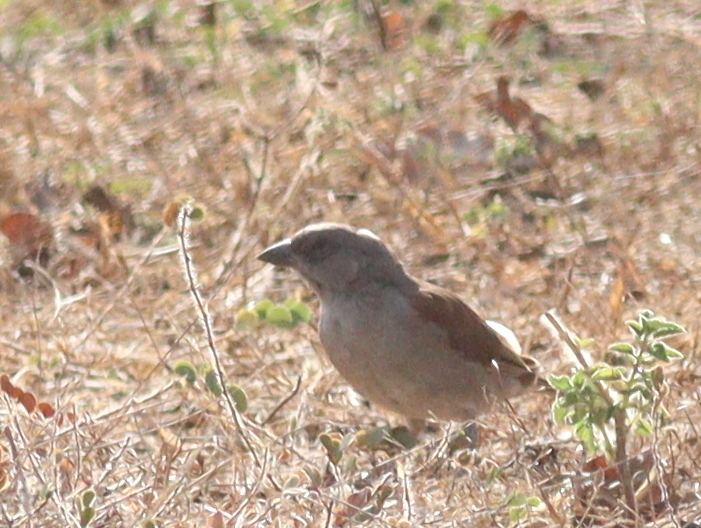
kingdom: Animalia
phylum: Chordata
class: Aves
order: Passeriformes
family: Passeridae
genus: Passer
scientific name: Passer griseus
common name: Northern grey-headed sparrow
